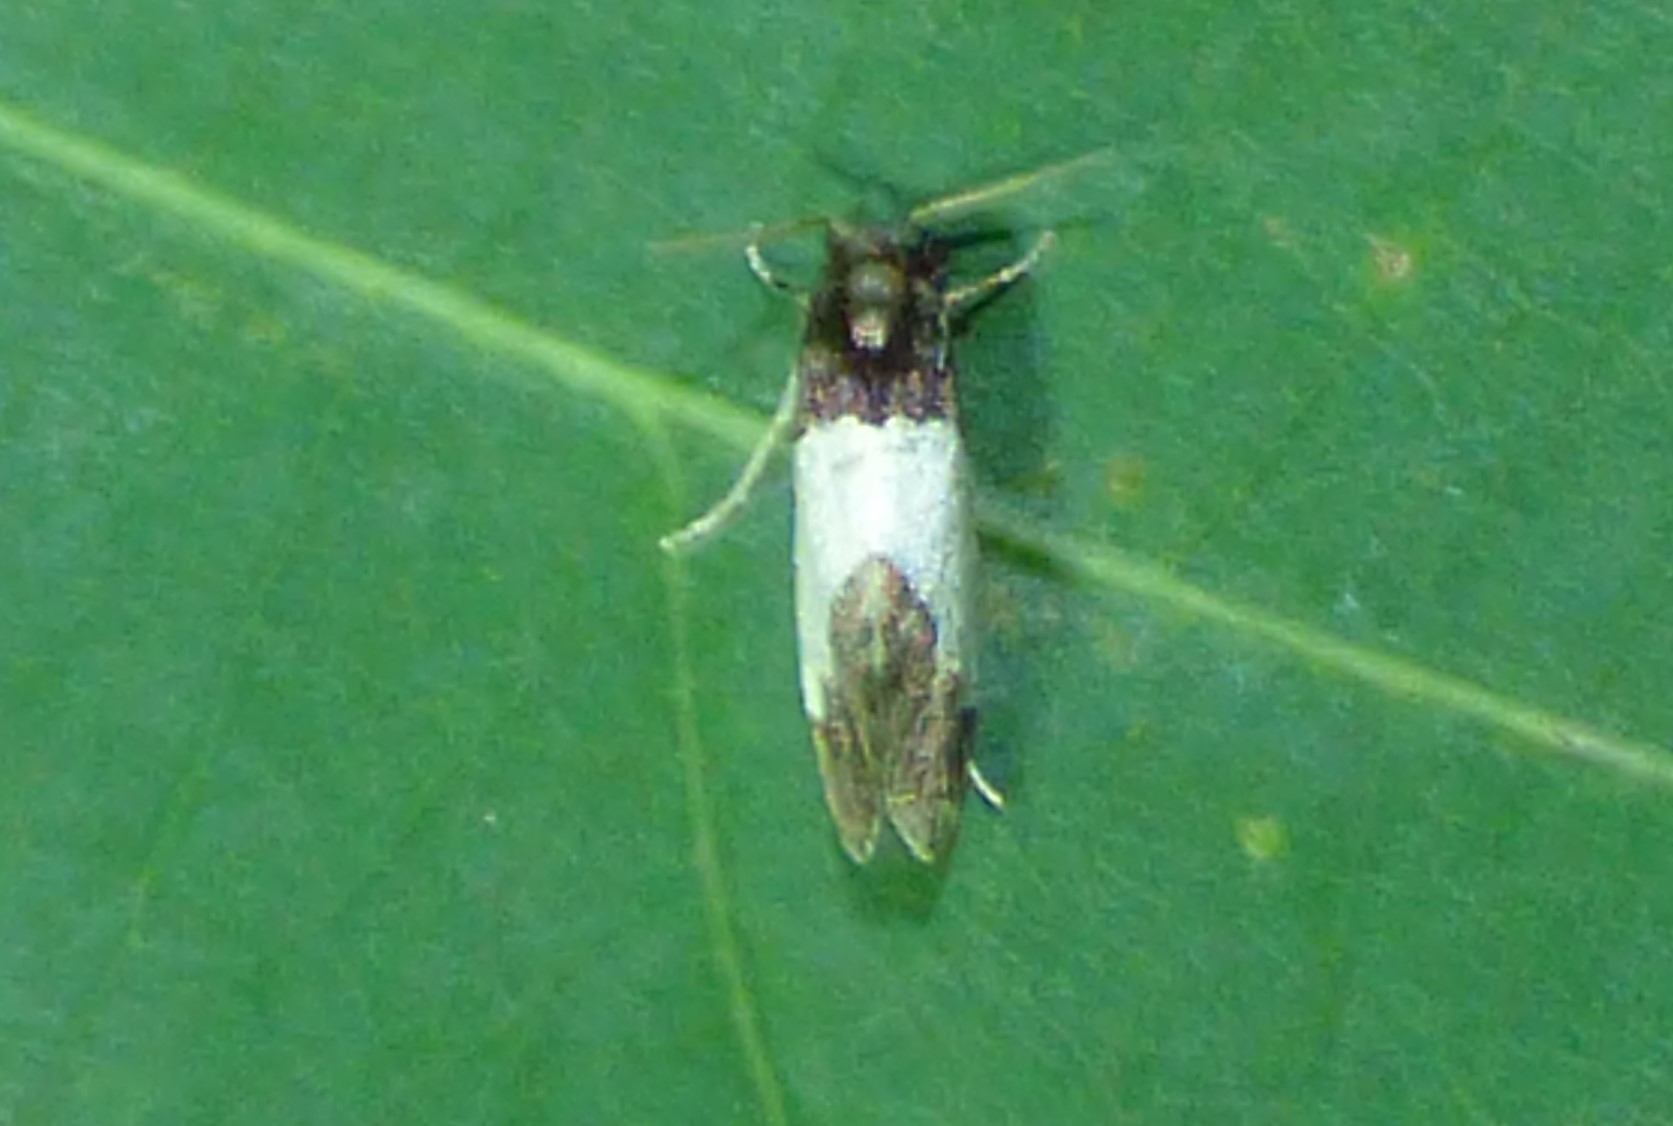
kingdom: Animalia
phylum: Arthropoda
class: Insecta
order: Lepidoptera
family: Psychidae
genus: Kearfottia
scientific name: Kearfottia albifasciella
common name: White-patched kearfottia
